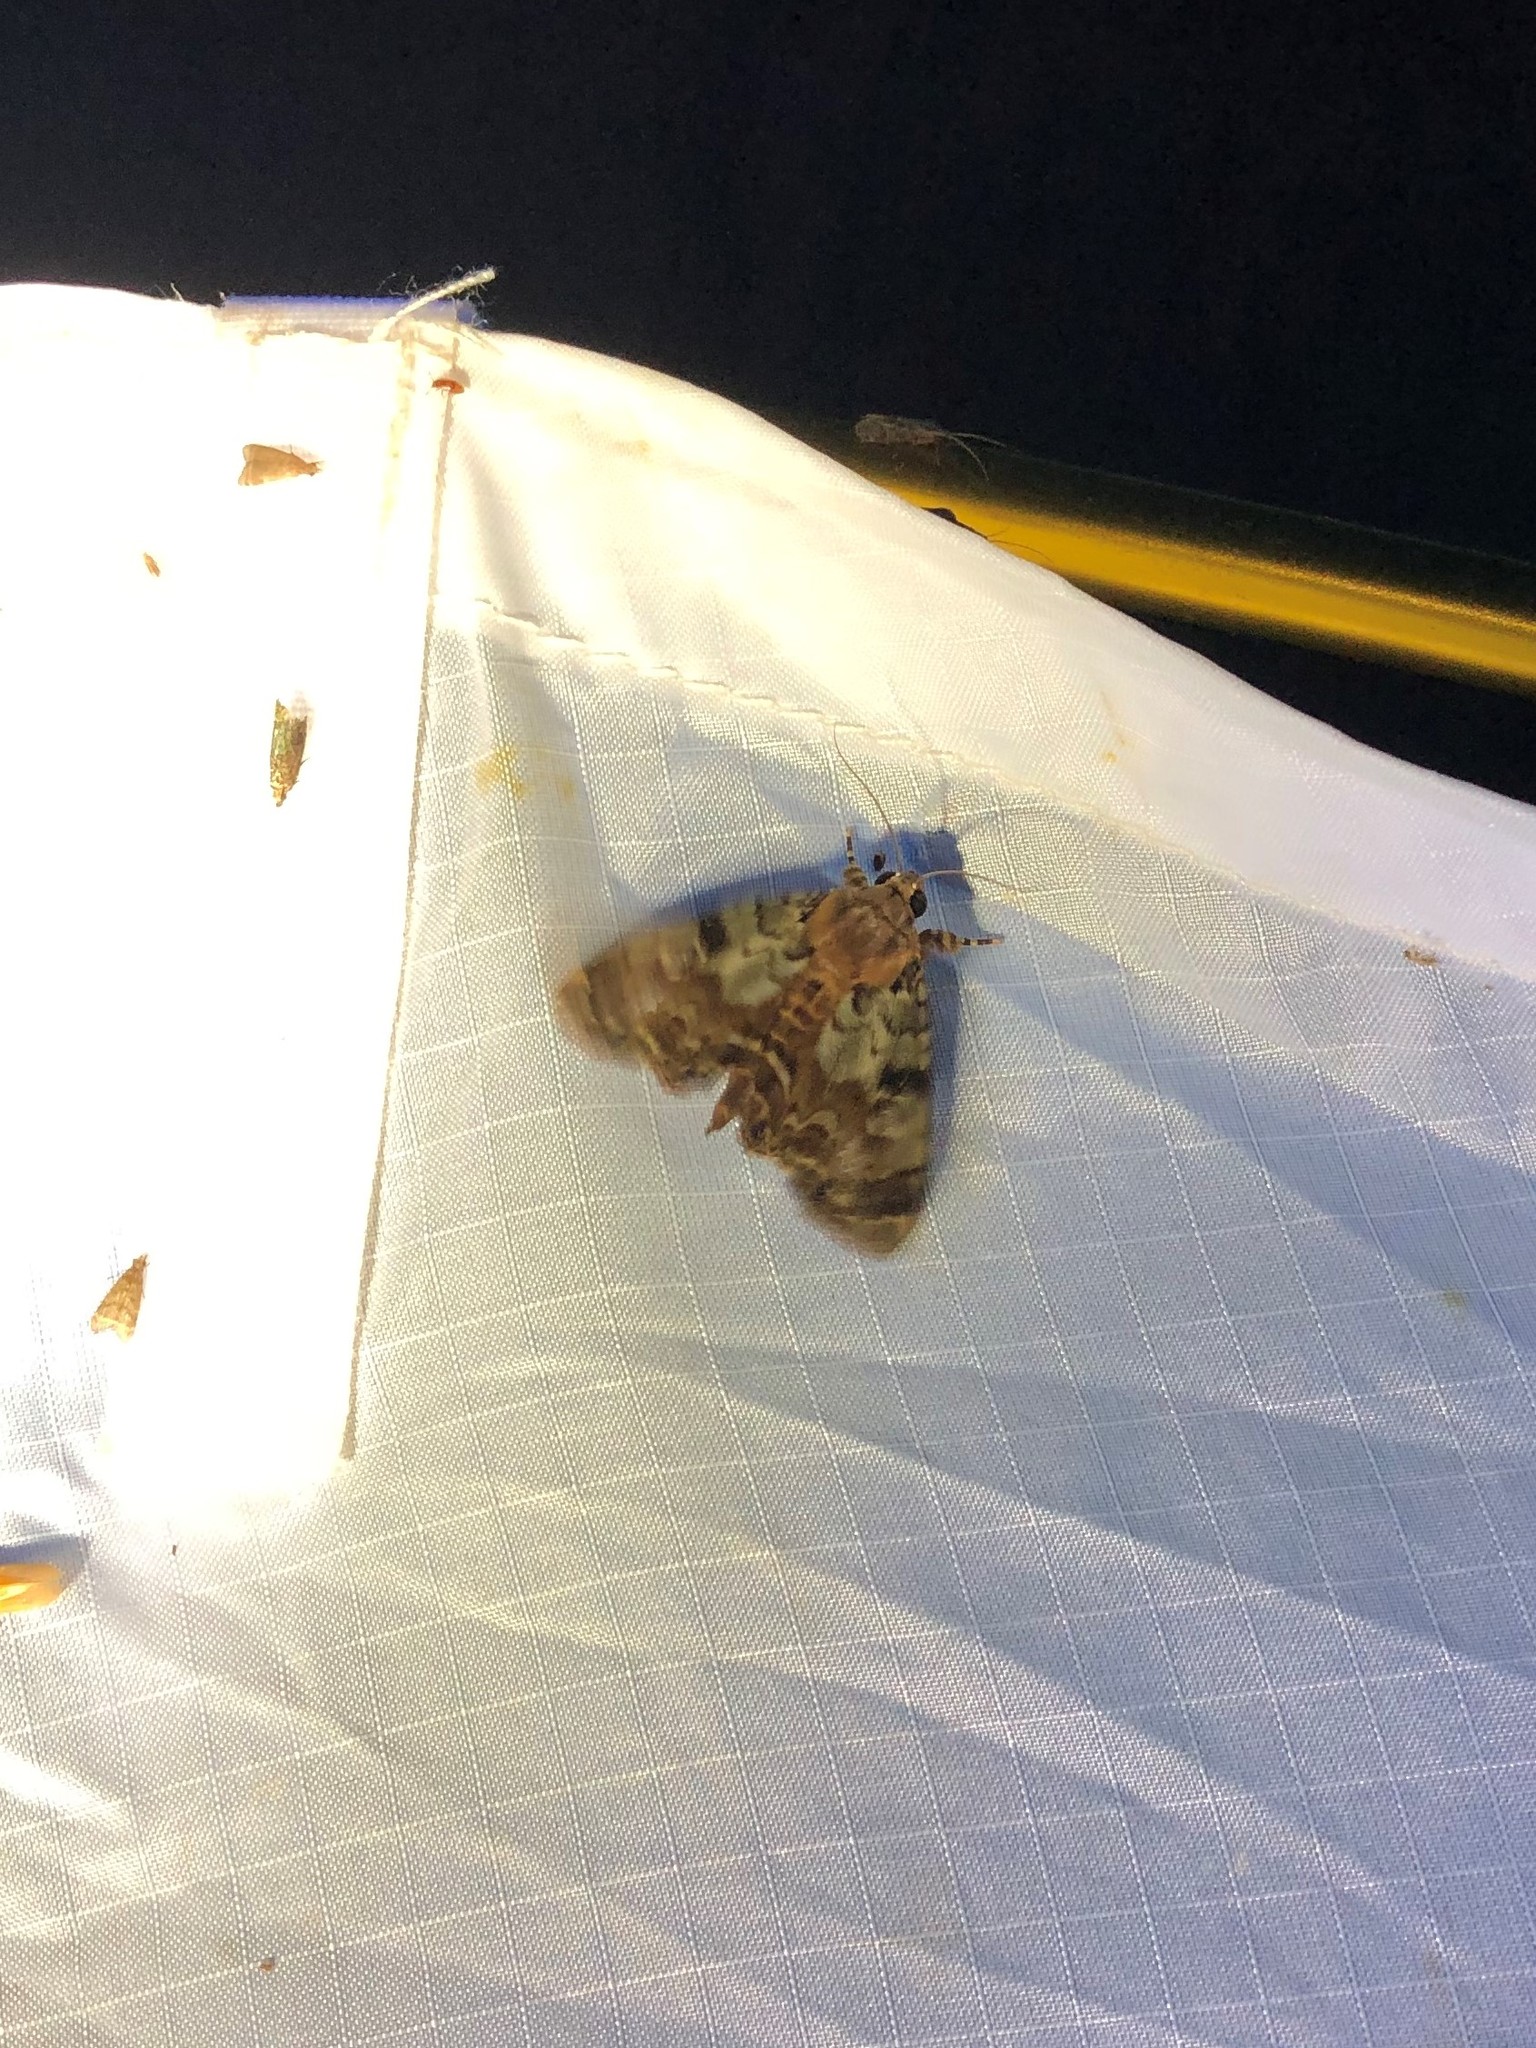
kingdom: Animalia
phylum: Arthropoda
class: Insecta
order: Lepidoptera
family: Erebidae
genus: Dyops
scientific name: Dyops chromatophila
